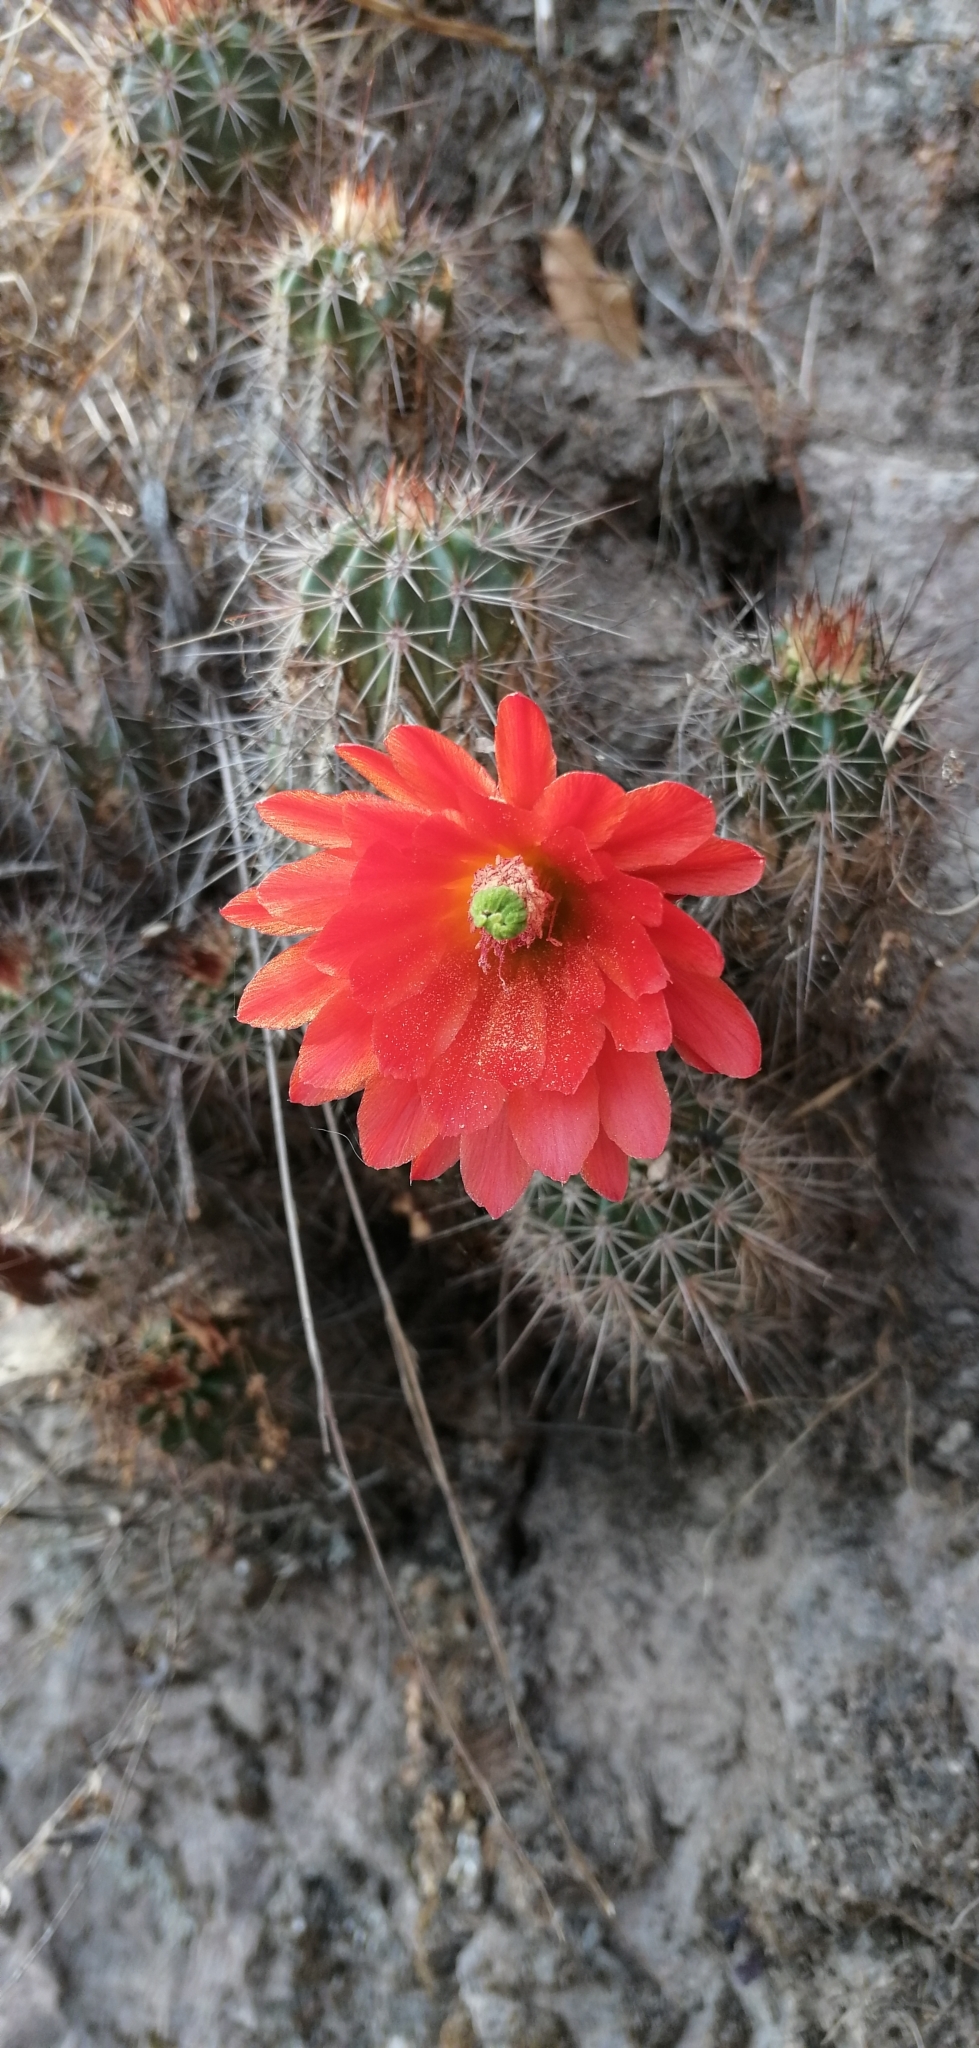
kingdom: Plantae
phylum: Tracheophyta
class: Magnoliopsida
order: Caryophyllales
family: Cactaceae
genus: Echinocereus
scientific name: Echinocereus acifer
